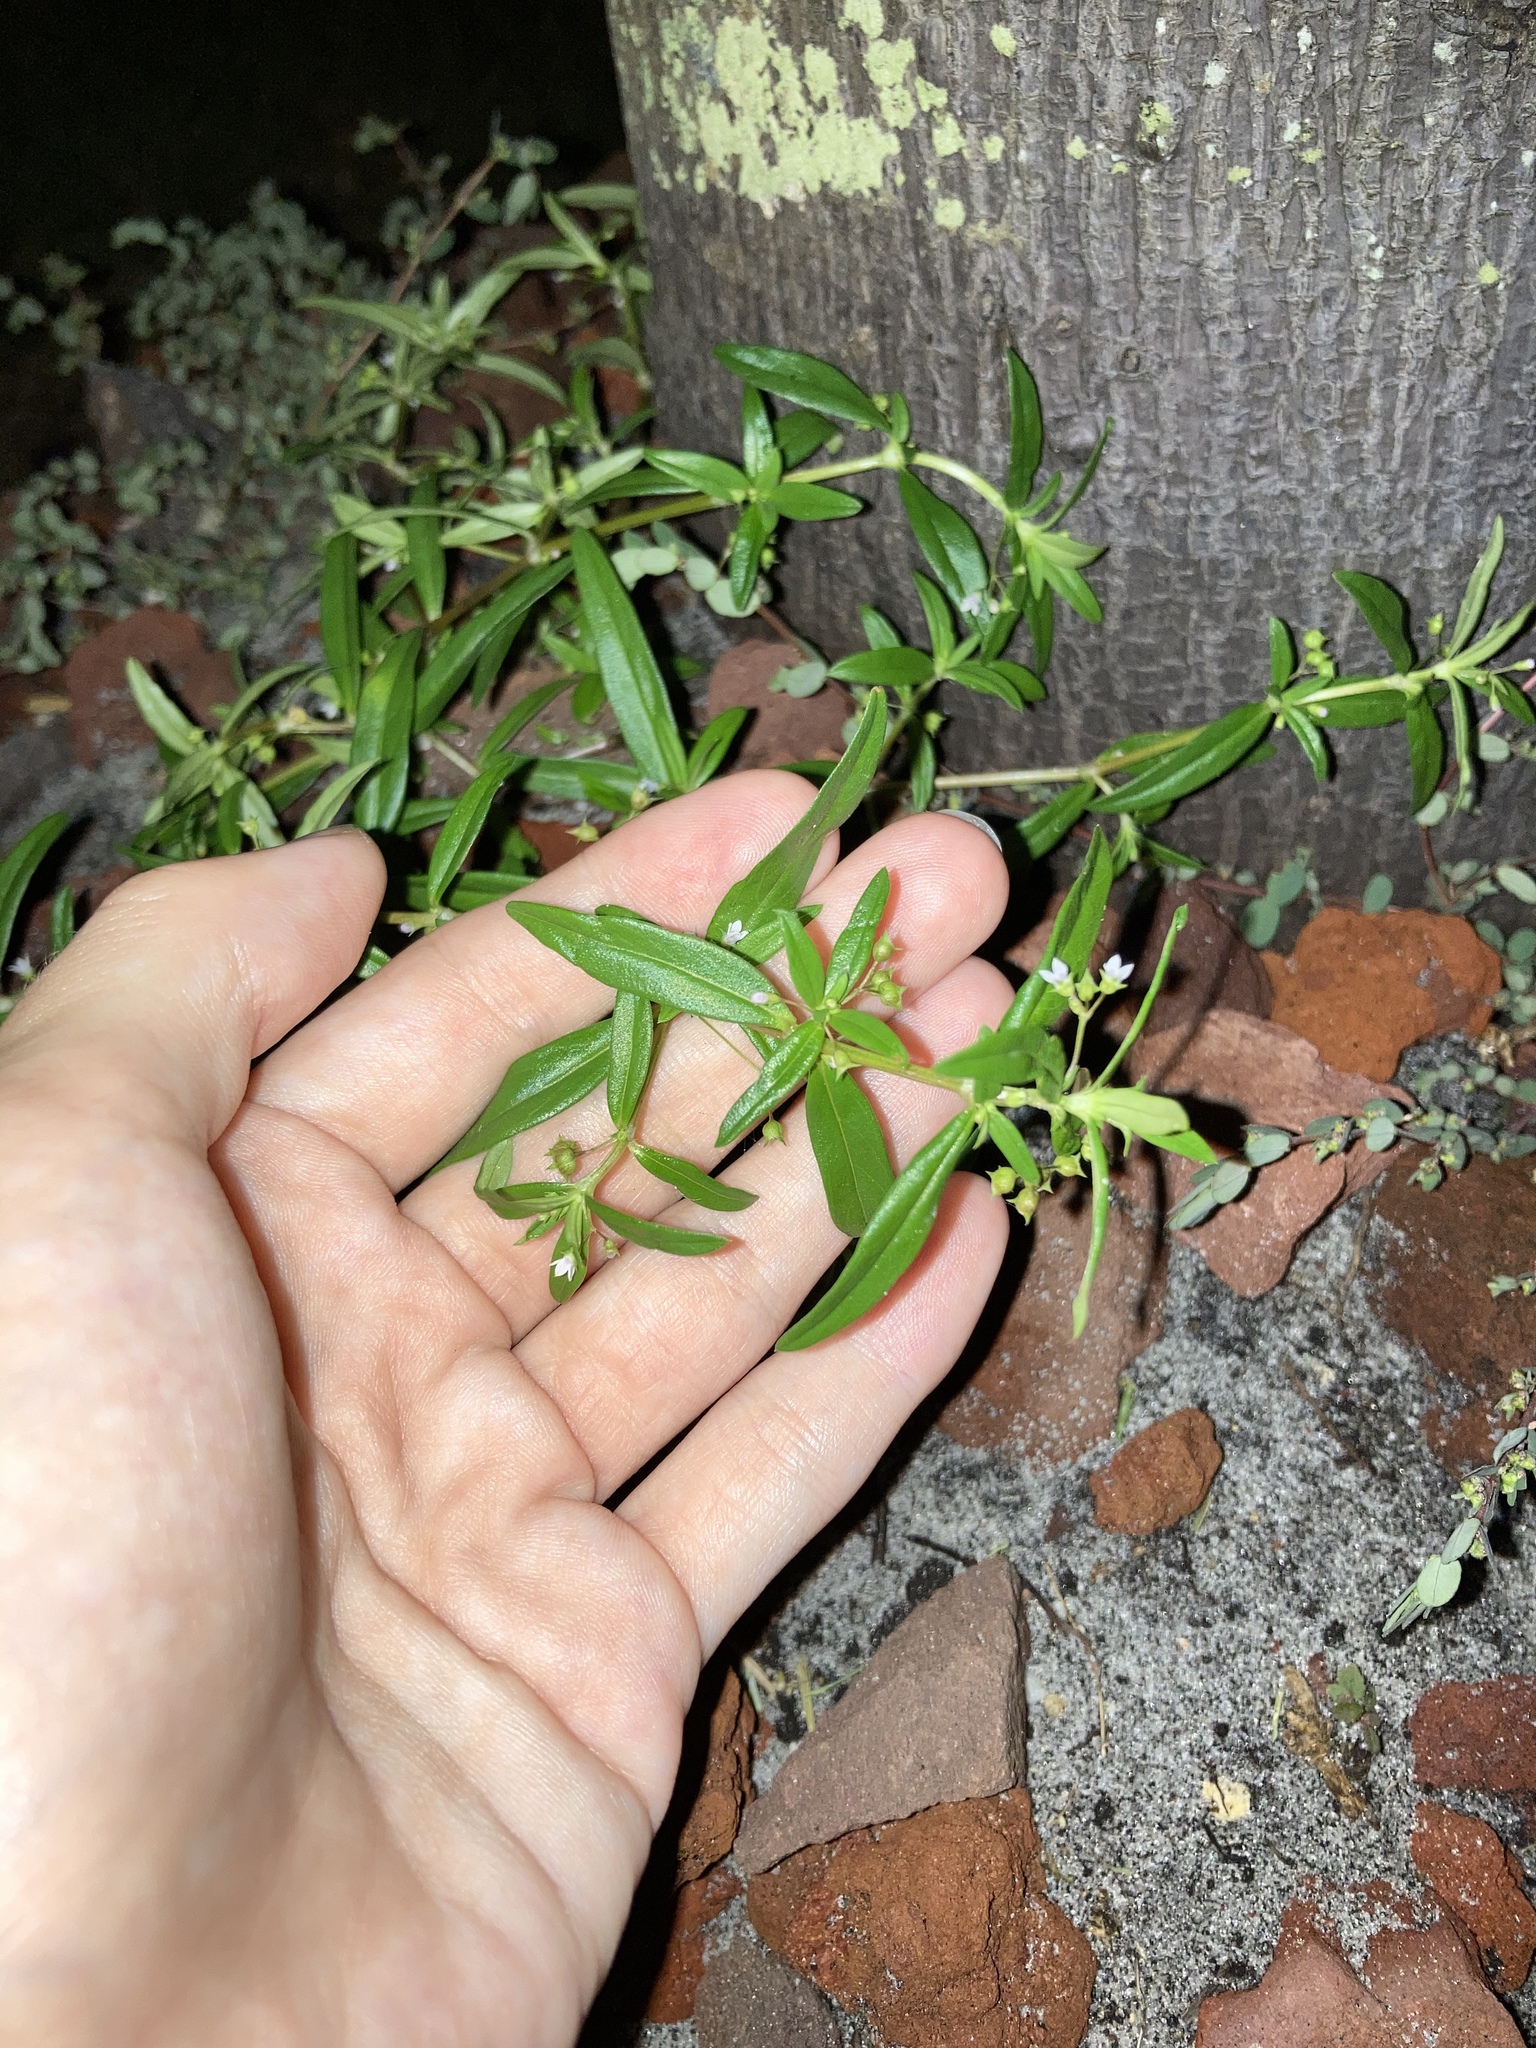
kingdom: Plantae
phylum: Tracheophyta
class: Magnoliopsida
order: Gentianales
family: Rubiaceae
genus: Oldenlandia
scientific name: Oldenlandia corymbosa
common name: Flat-top mille graines
